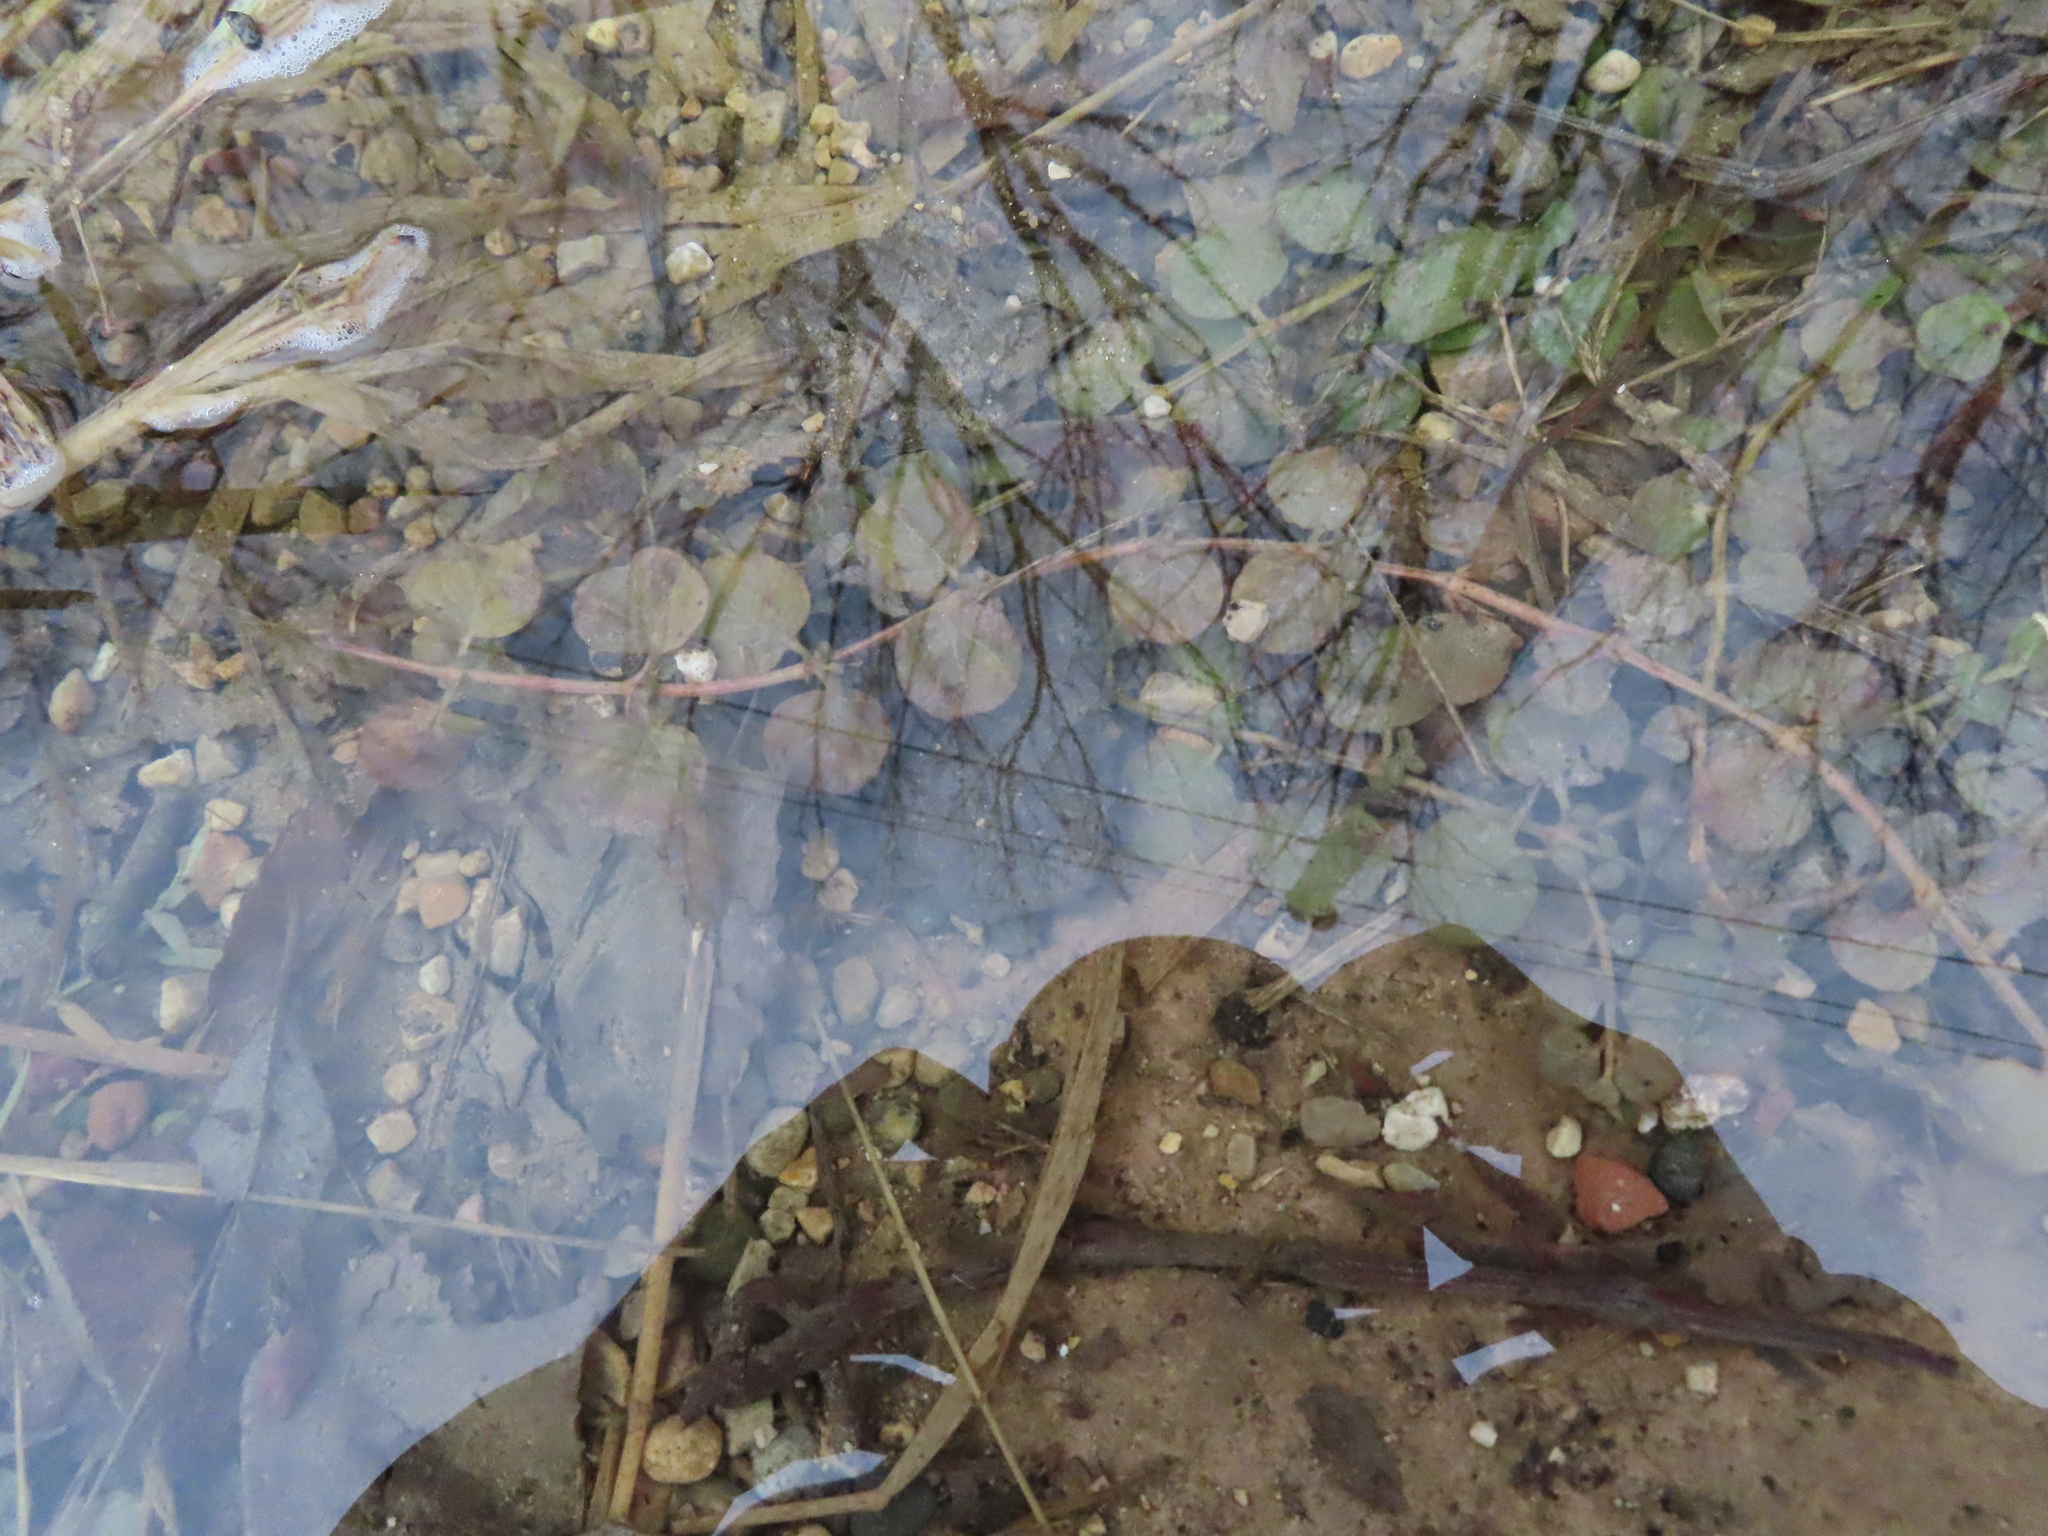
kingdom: Plantae
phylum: Tracheophyta
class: Magnoliopsida
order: Ericales
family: Primulaceae
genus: Lysimachia
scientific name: Lysimachia nummularia
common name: Moneywort
